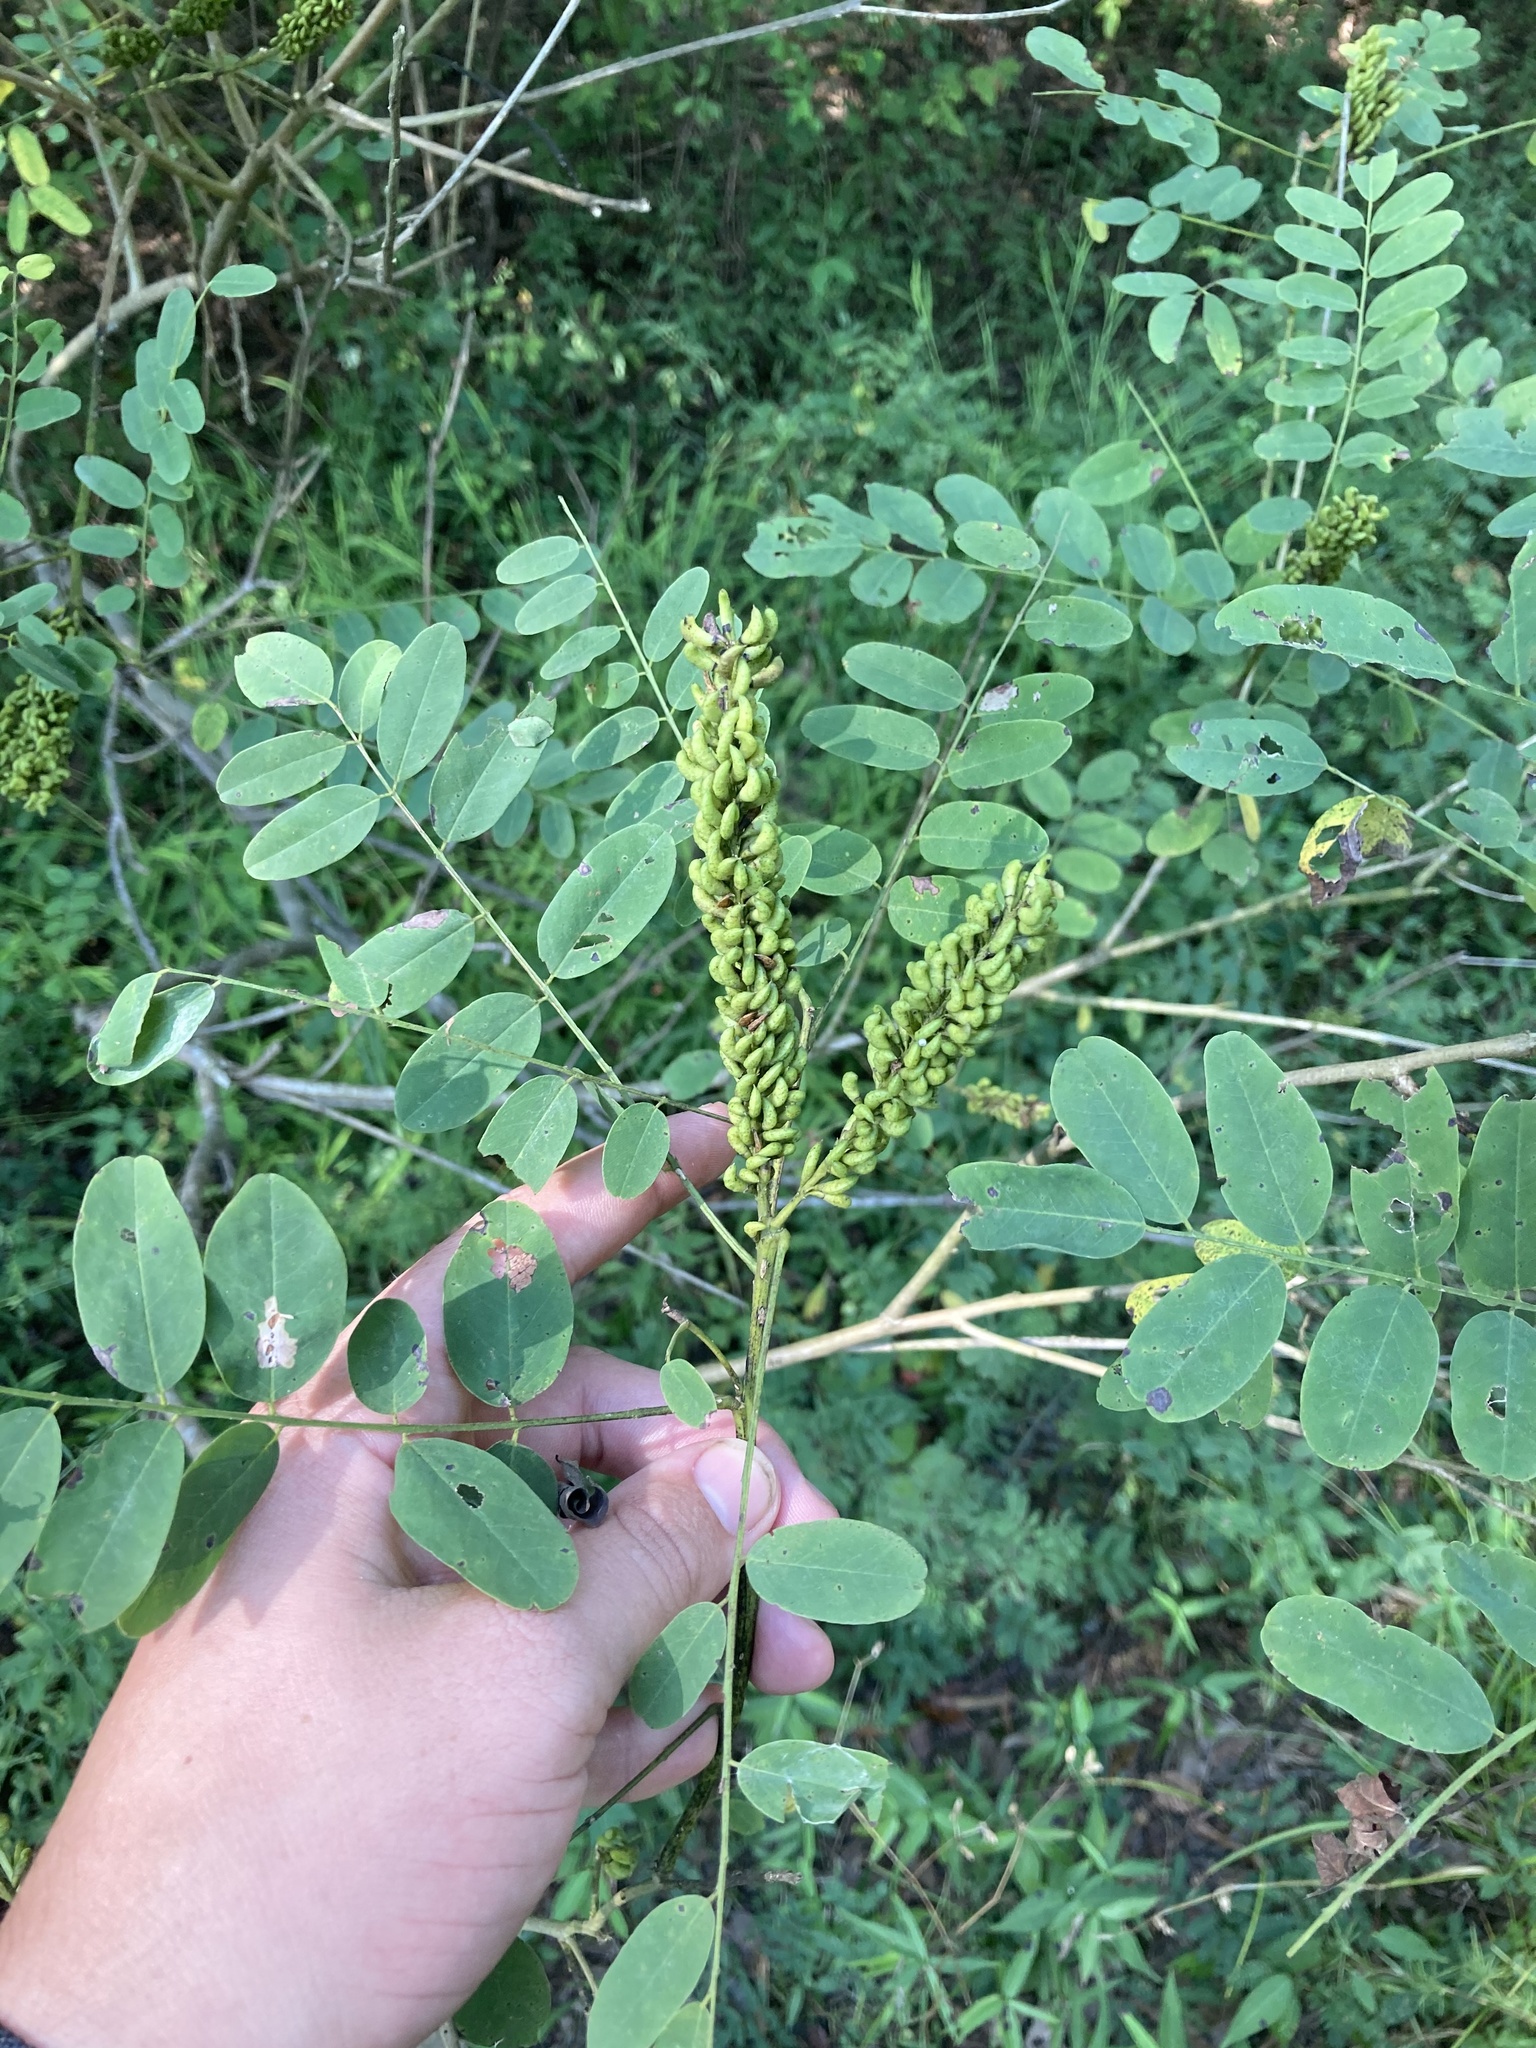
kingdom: Plantae
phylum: Tracheophyta
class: Magnoliopsida
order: Fabales
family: Fabaceae
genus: Amorpha
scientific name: Amorpha fruticosa
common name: False indigo
